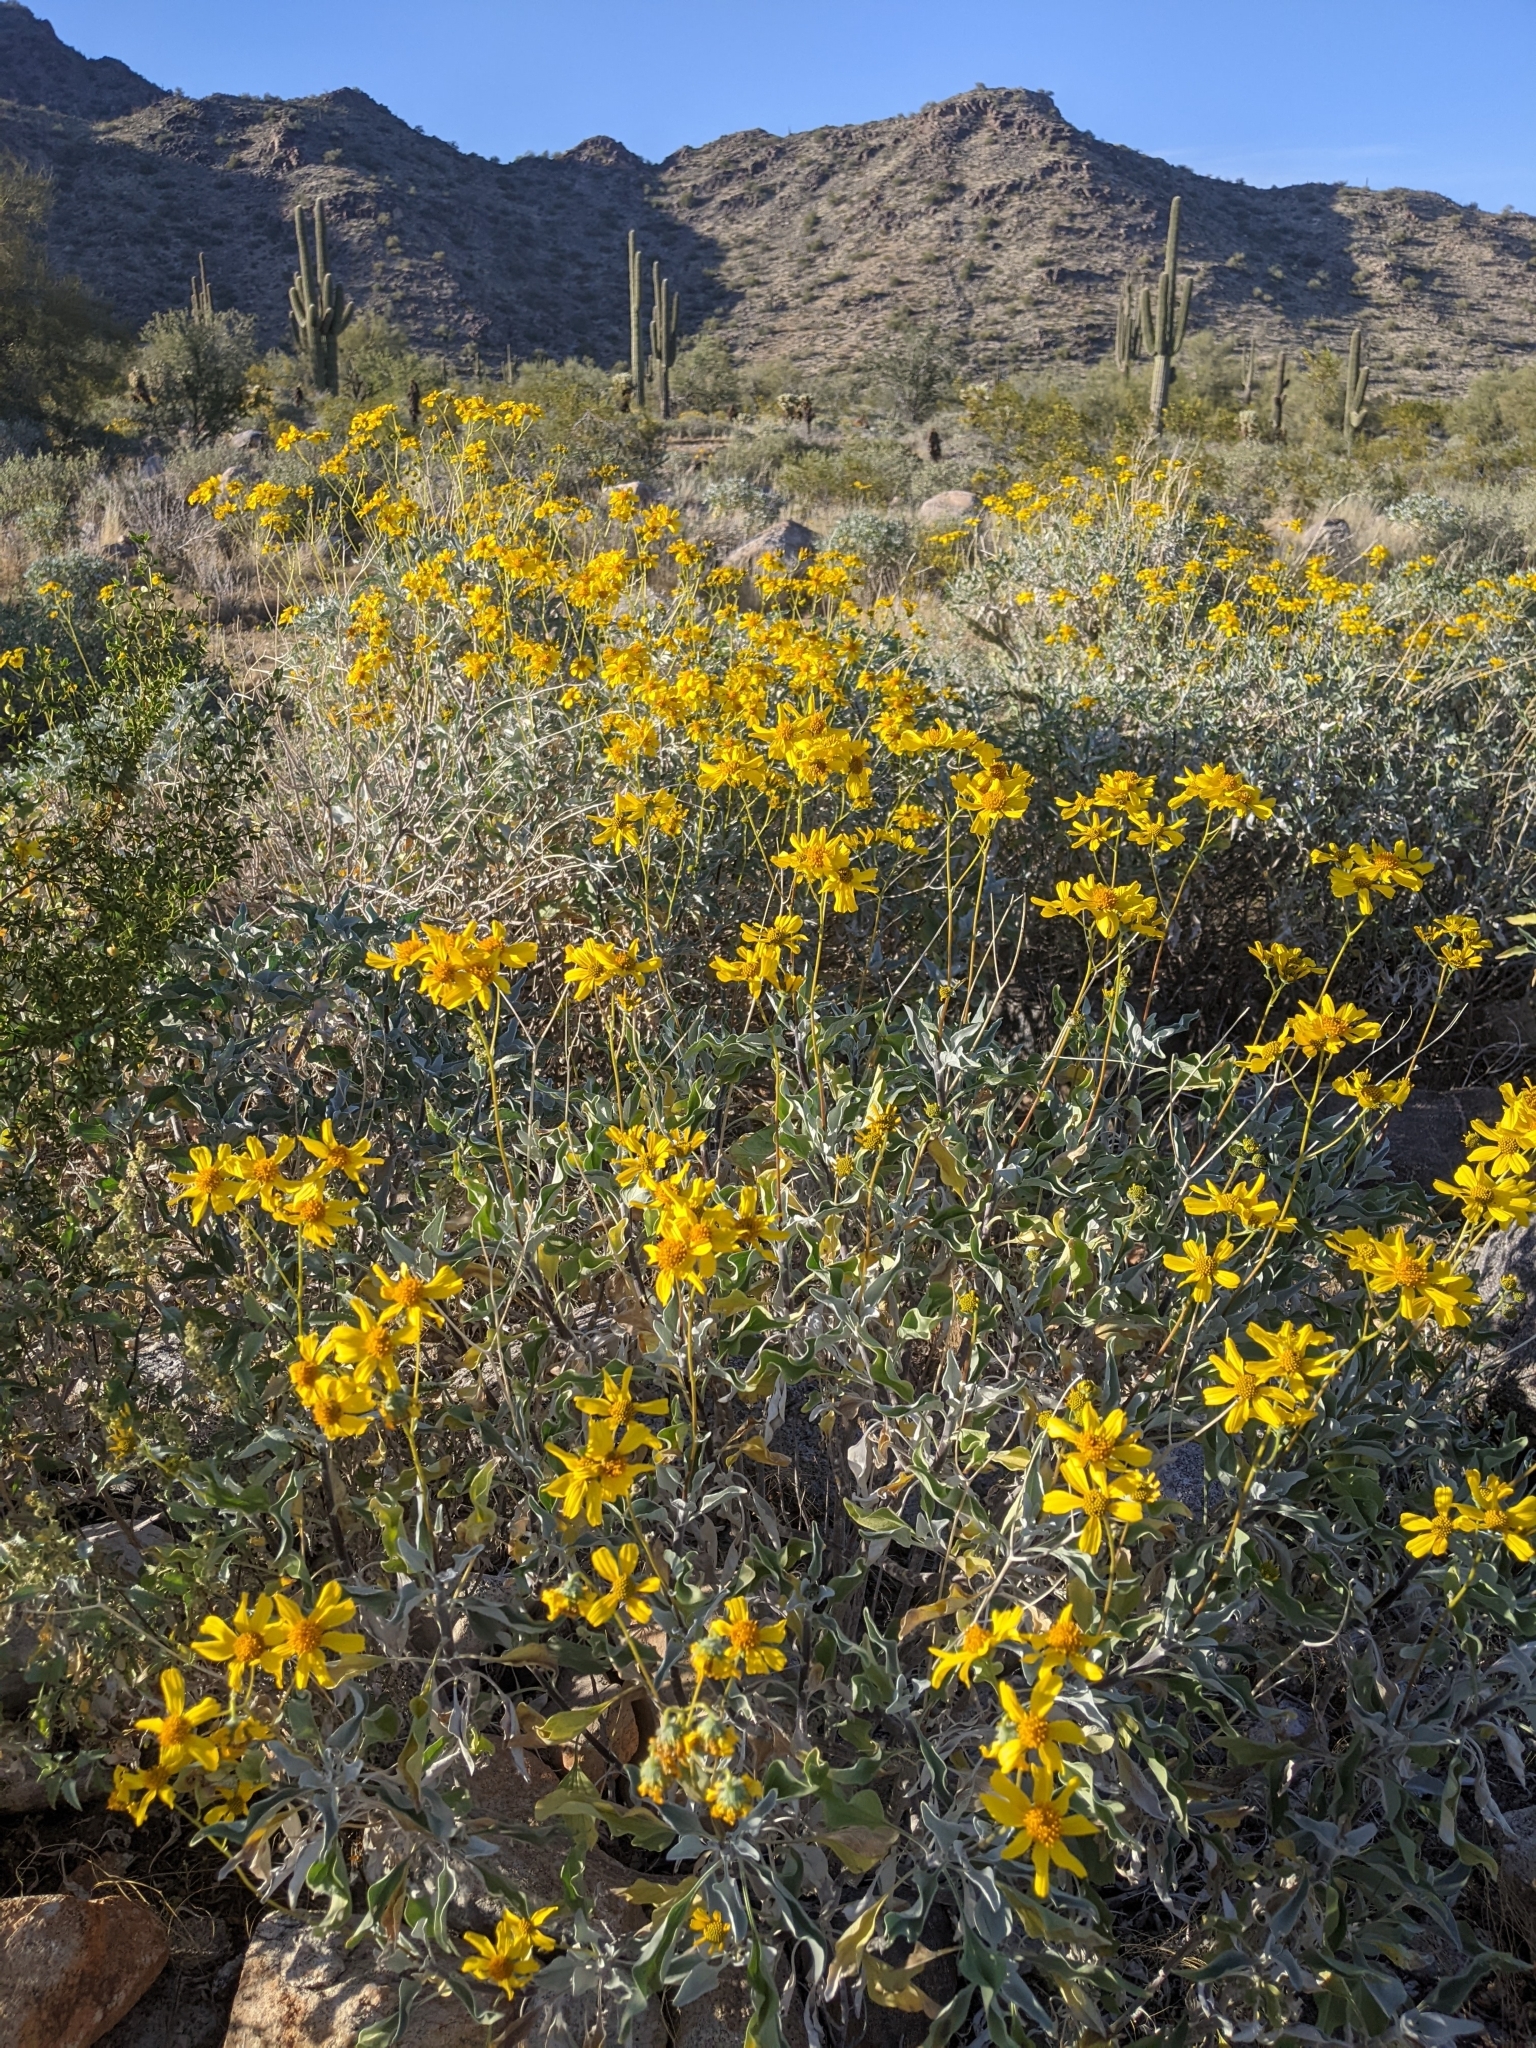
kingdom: Plantae
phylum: Tracheophyta
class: Magnoliopsida
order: Asterales
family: Asteraceae
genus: Encelia
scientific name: Encelia farinosa
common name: Brittlebush
